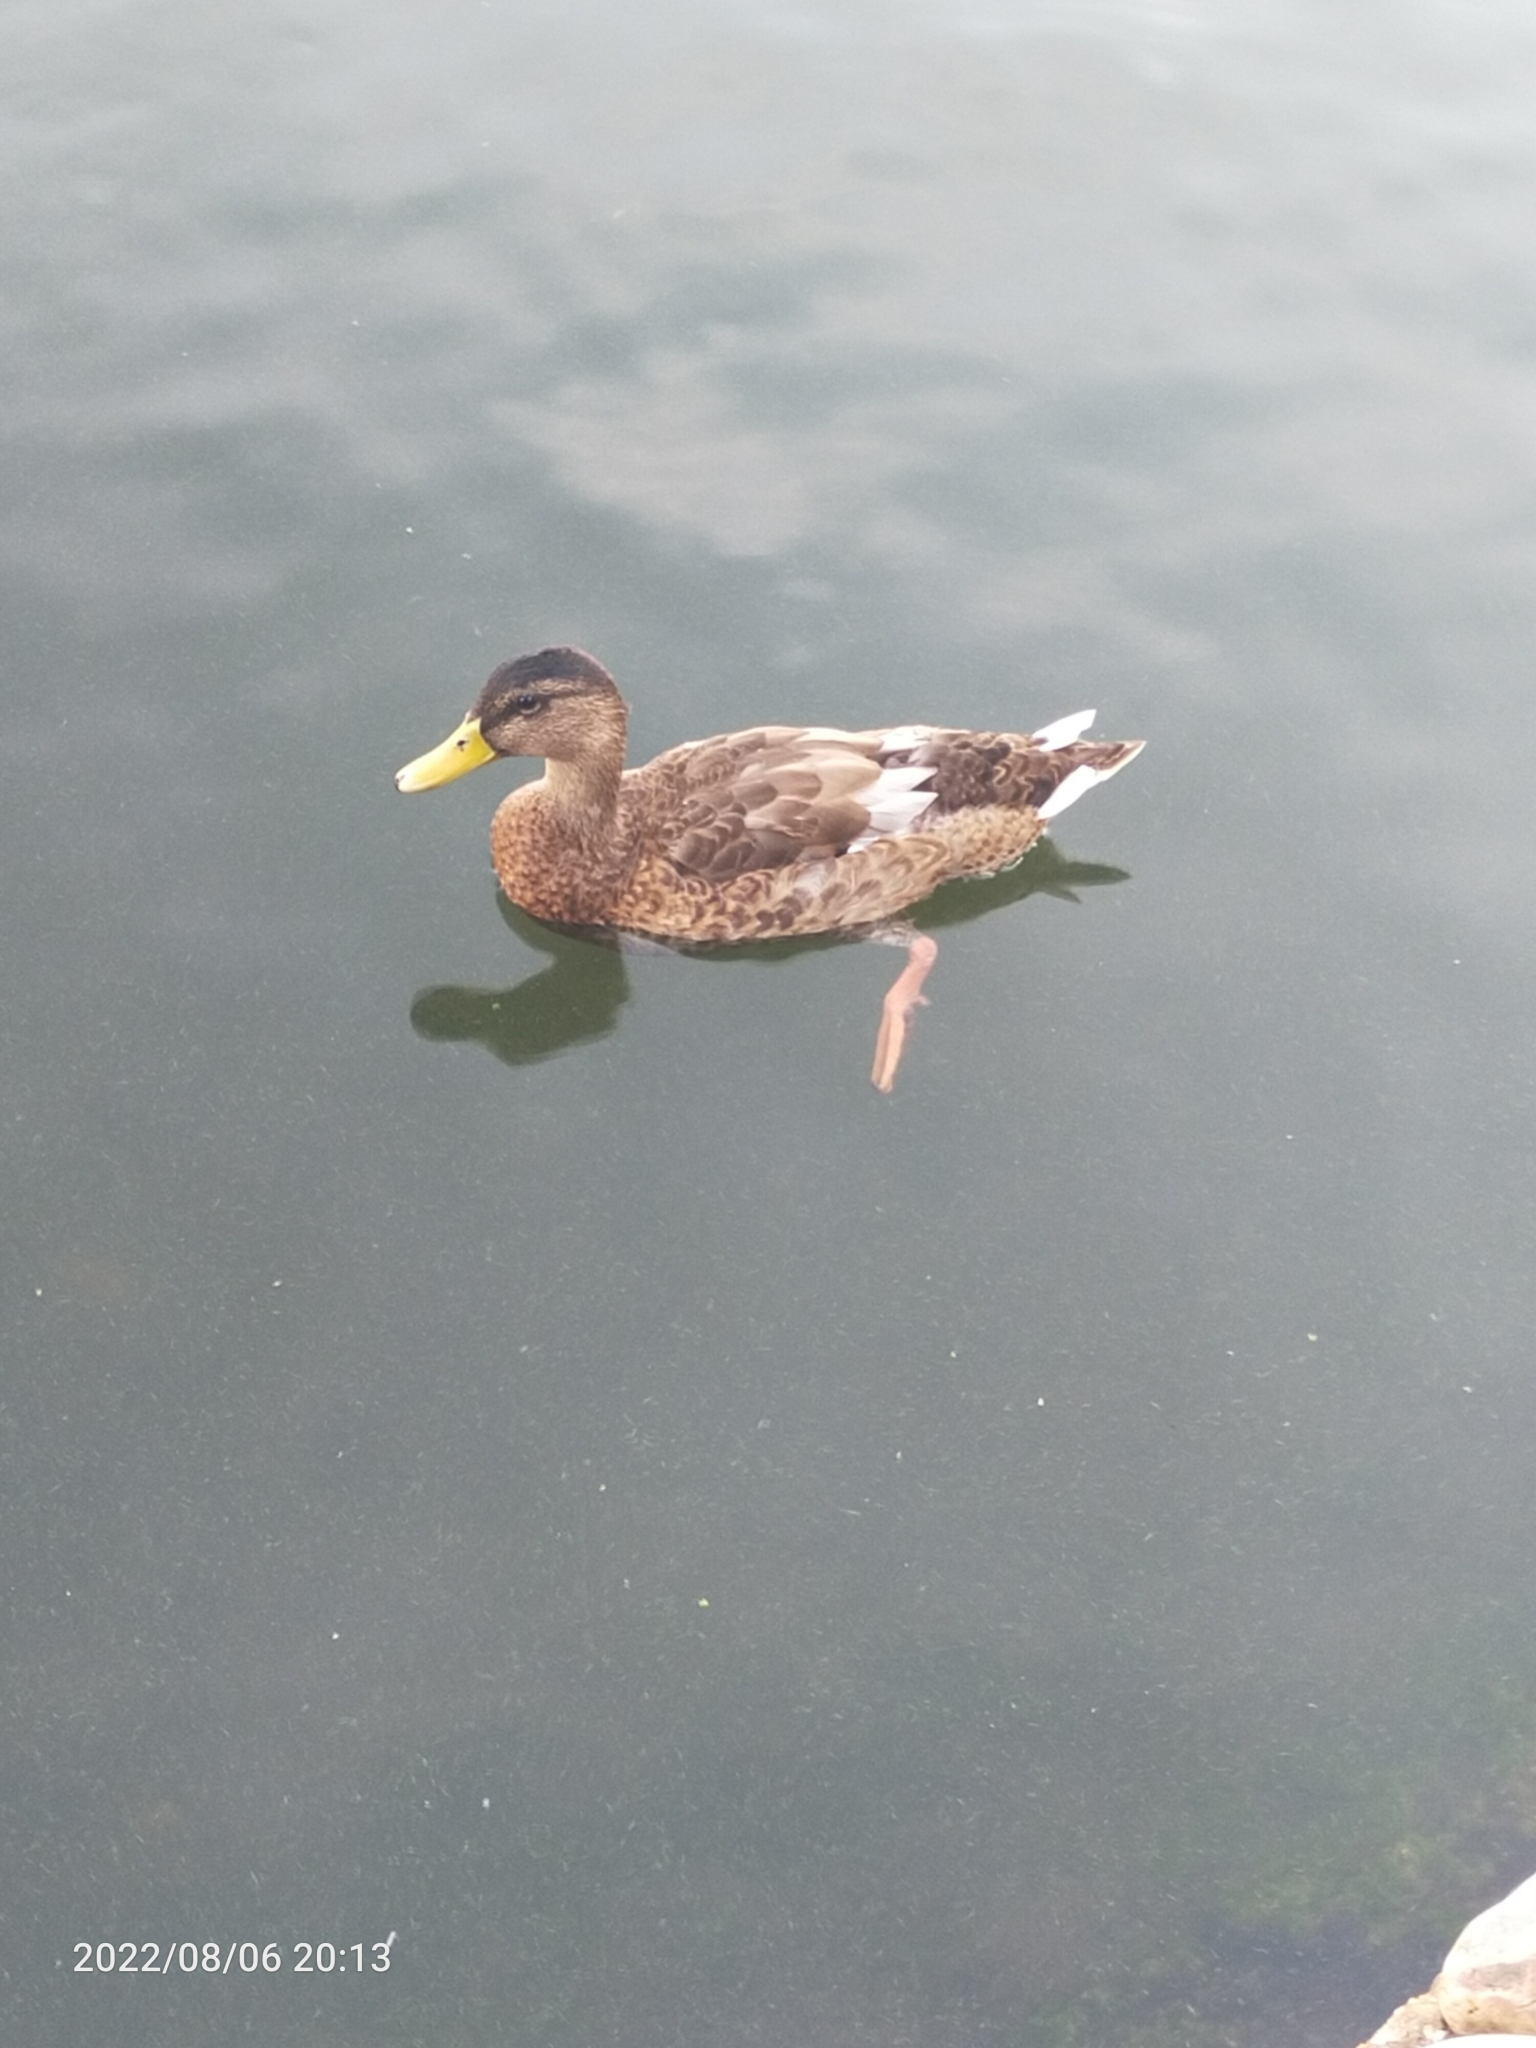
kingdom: Animalia
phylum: Chordata
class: Aves
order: Anseriformes
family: Anatidae
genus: Anas
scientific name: Anas platyrhynchos
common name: Mallard
